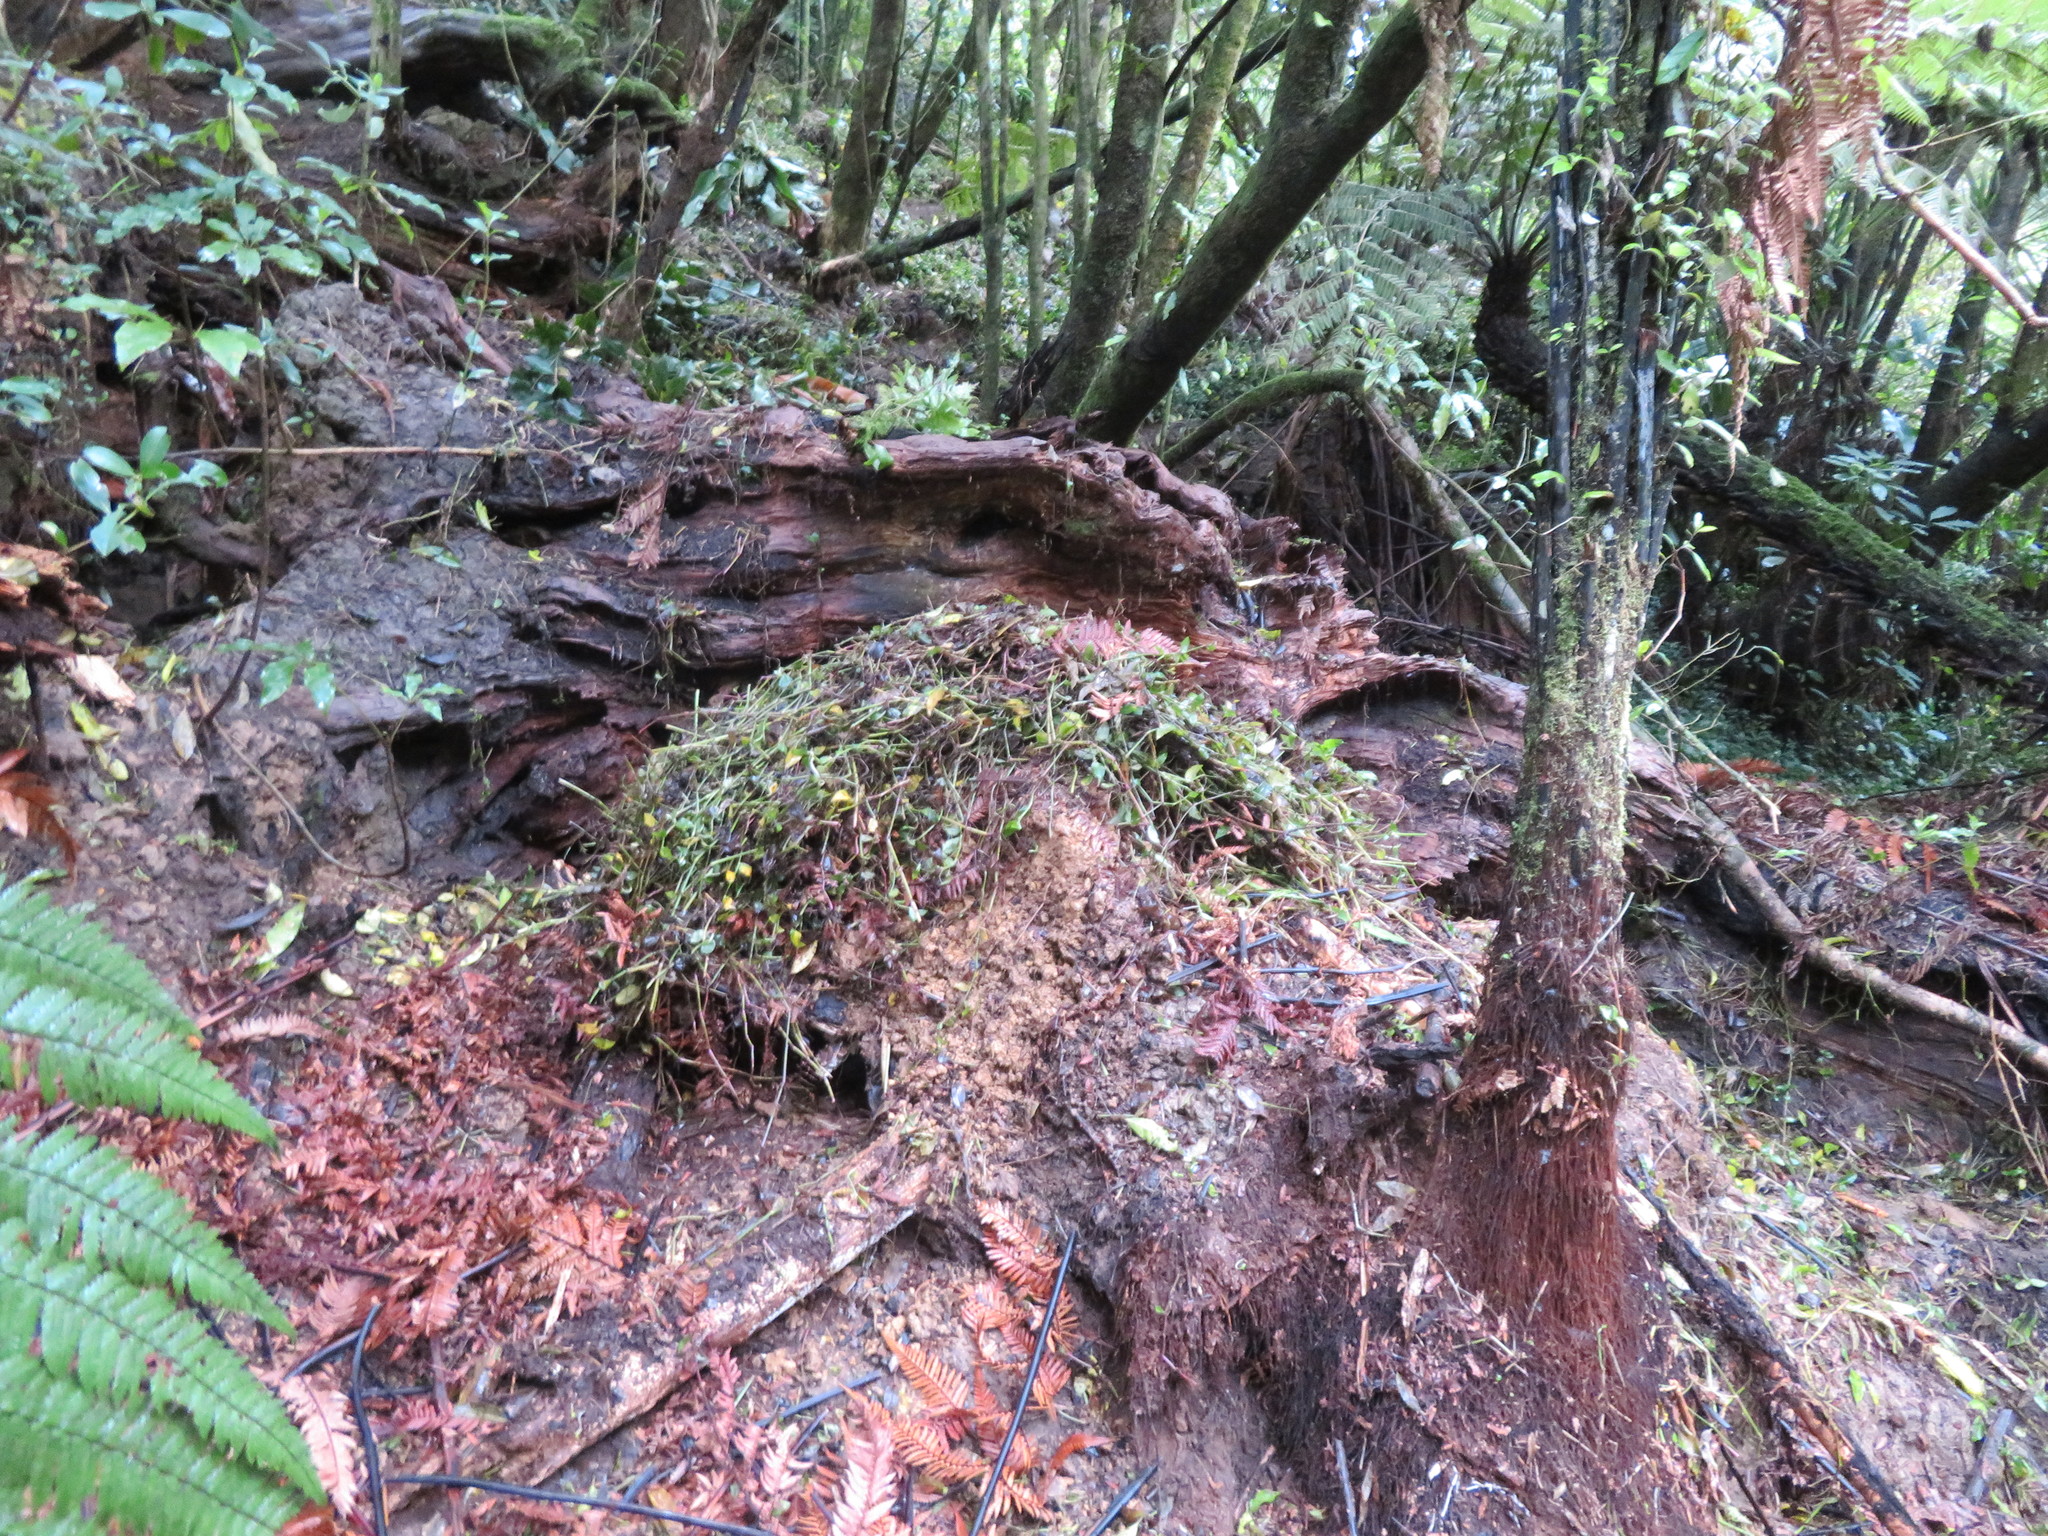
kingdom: Plantae
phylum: Tracheophyta
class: Liliopsida
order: Commelinales
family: Commelinaceae
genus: Tradescantia
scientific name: Tradescantia fluminensis
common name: Wandering-jew
